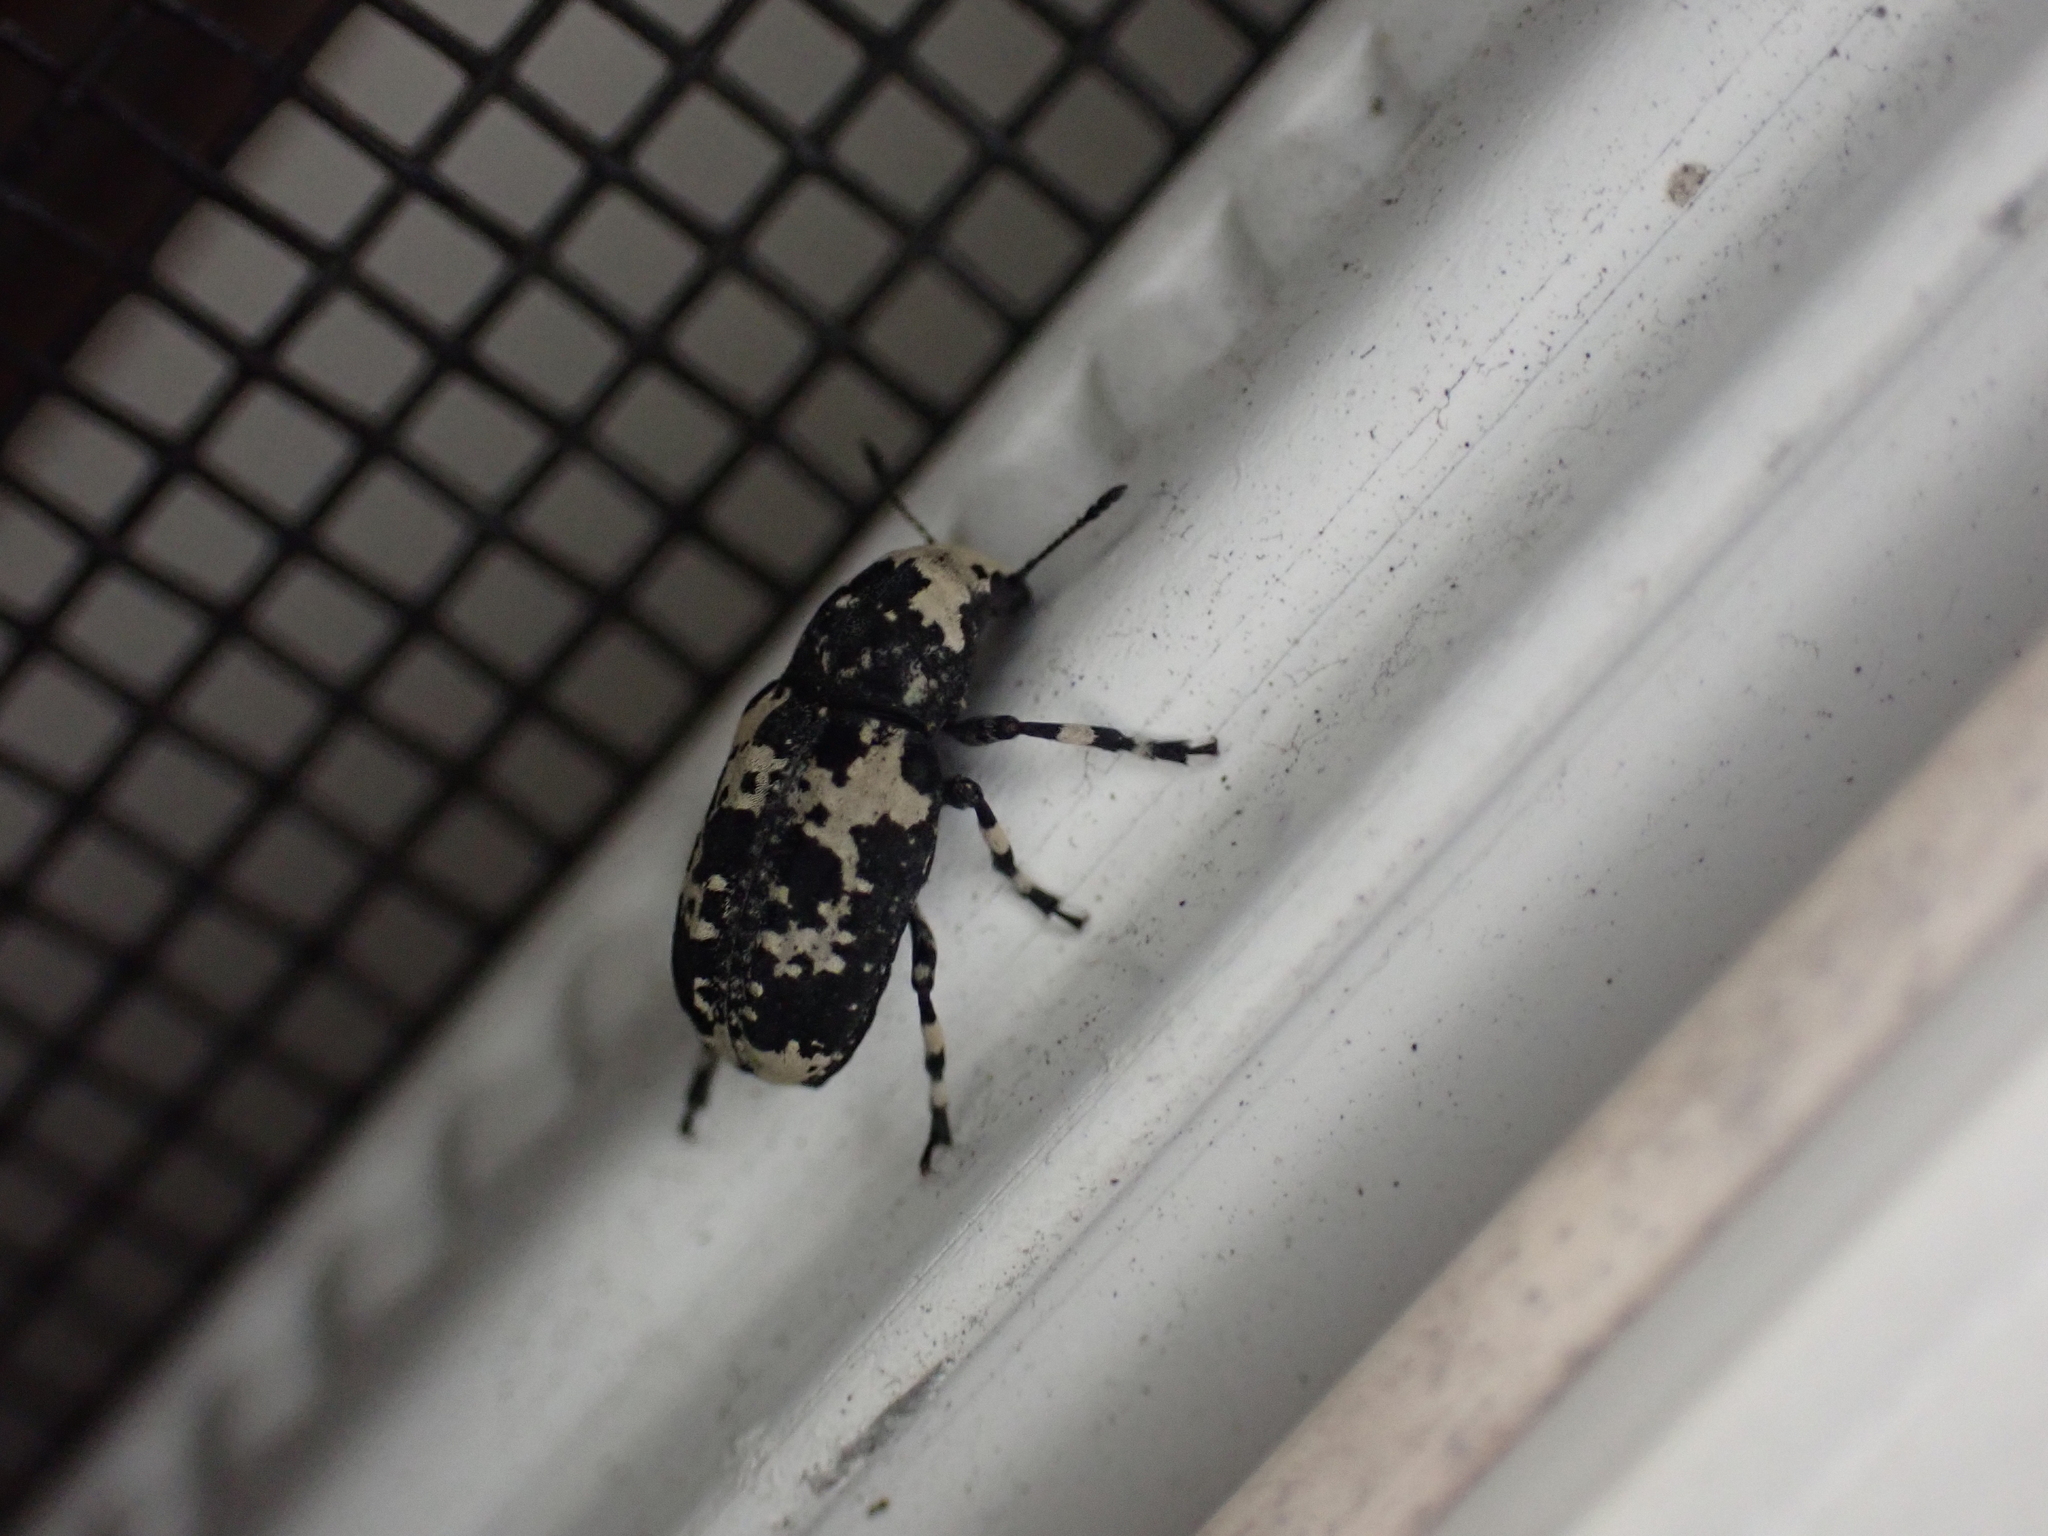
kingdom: Animalia
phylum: Arthropoda
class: Insecta
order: Coleoptera
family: Anthribidae
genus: Euparius
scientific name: Euparius lugubris
